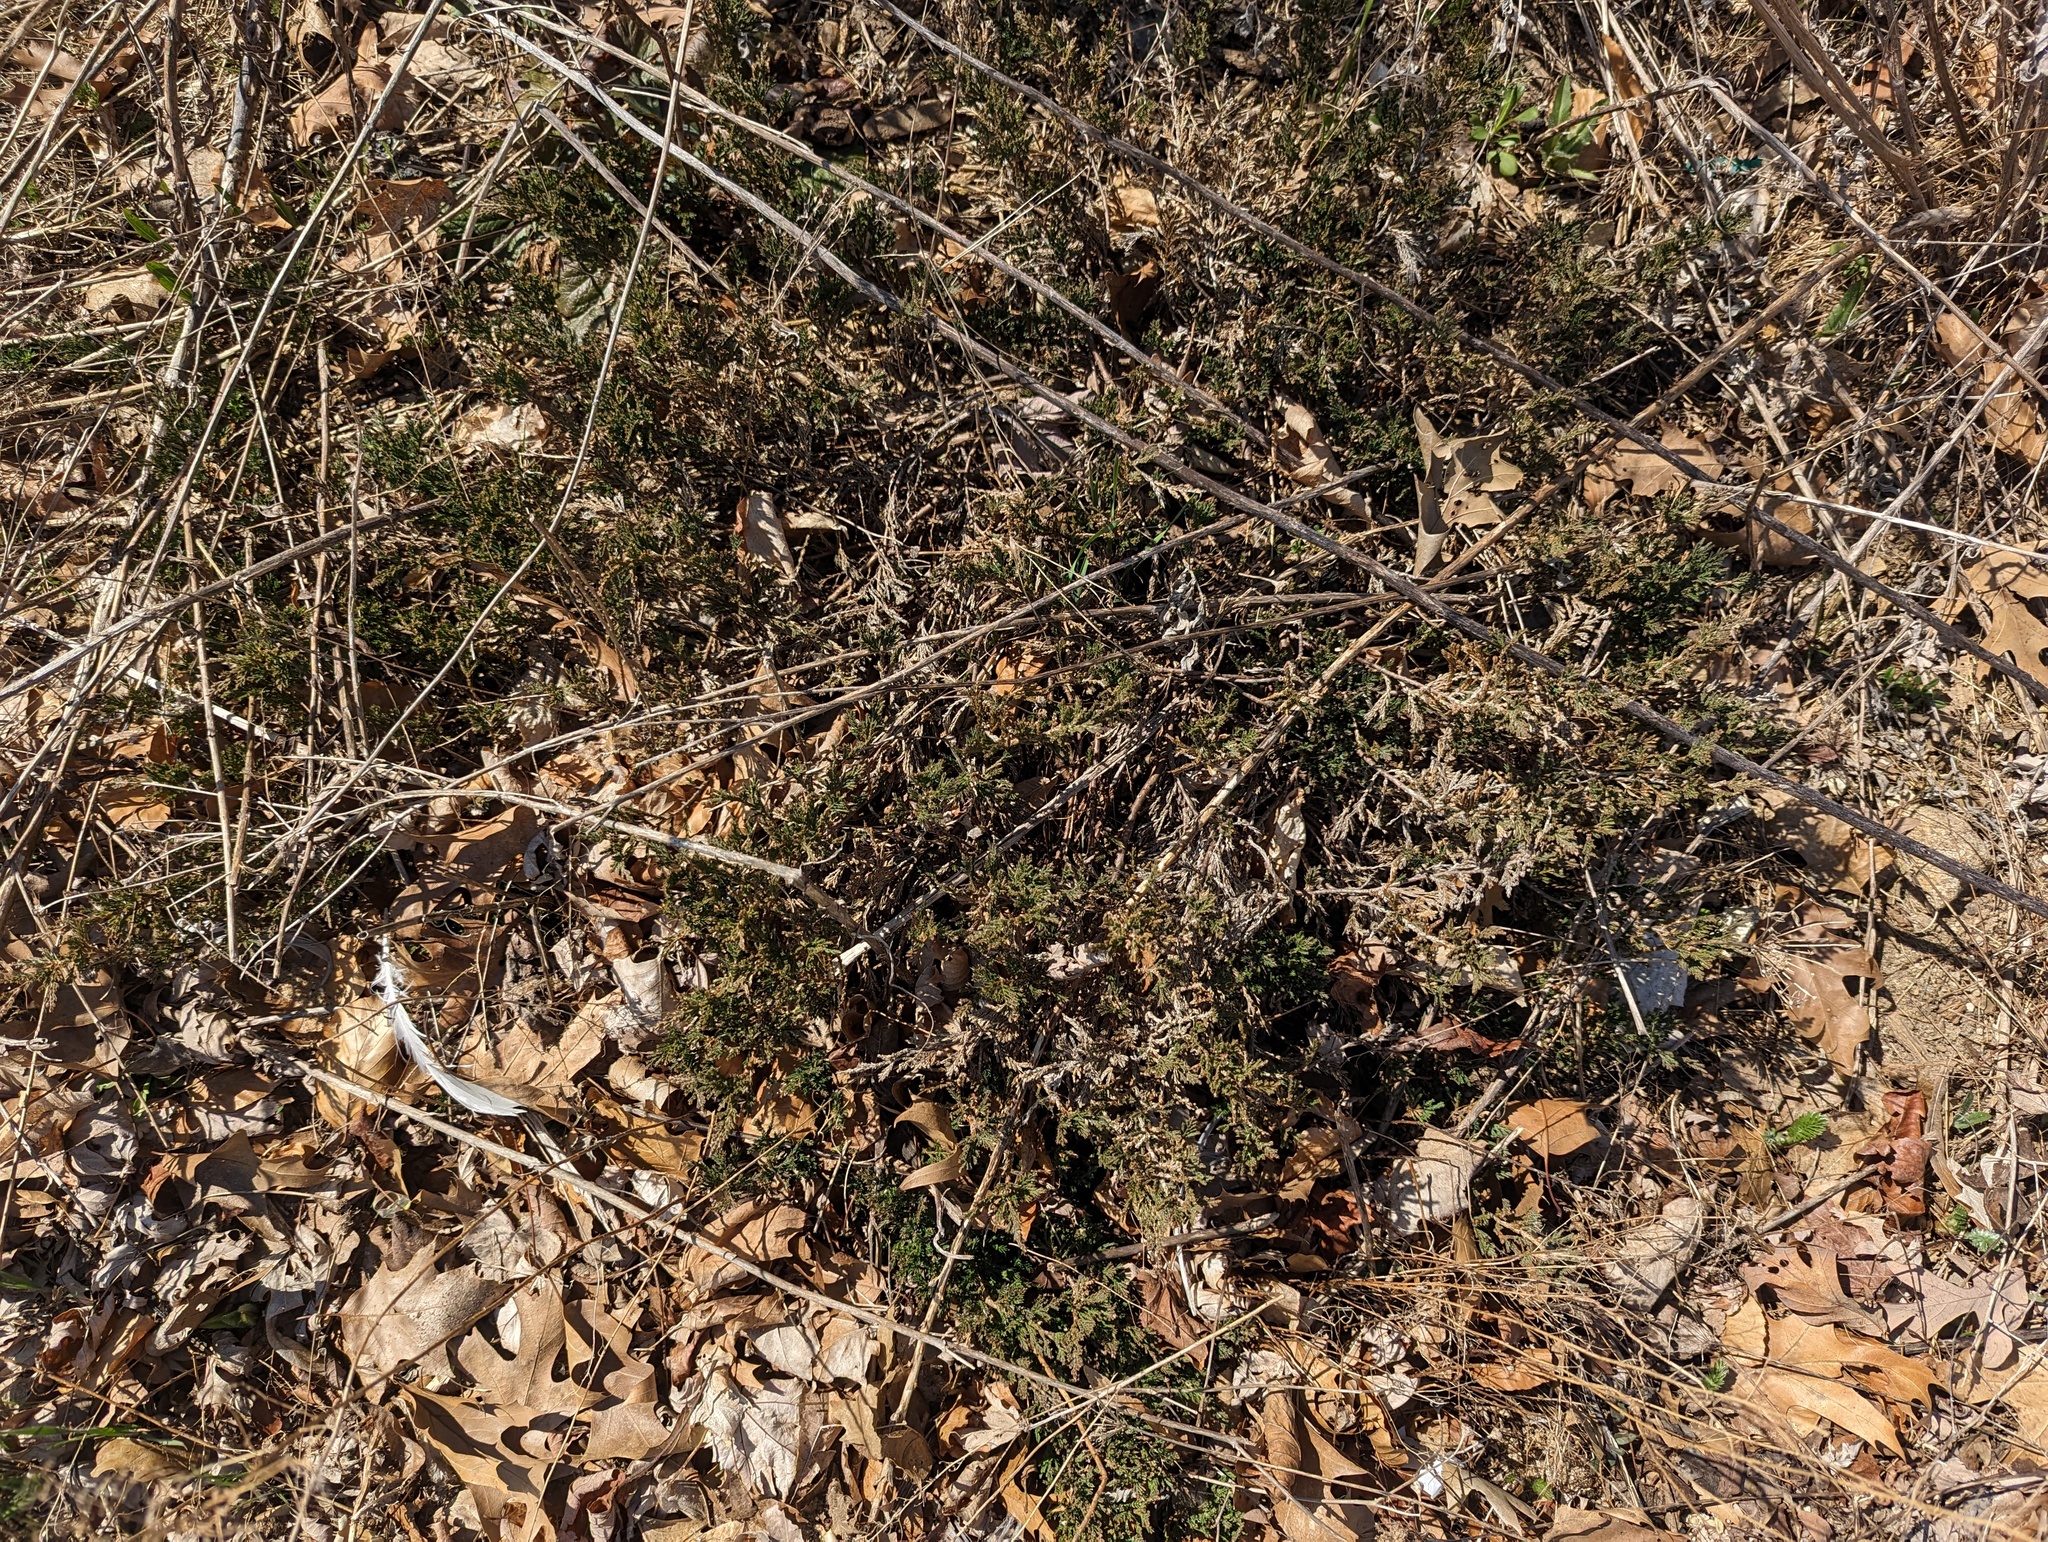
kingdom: Plantae
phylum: Tracheophyta
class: Pinopsida
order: Pinales
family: Cupressaceae
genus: Juniperus
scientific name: Juniperus horizontalis
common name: Creeping juniper
